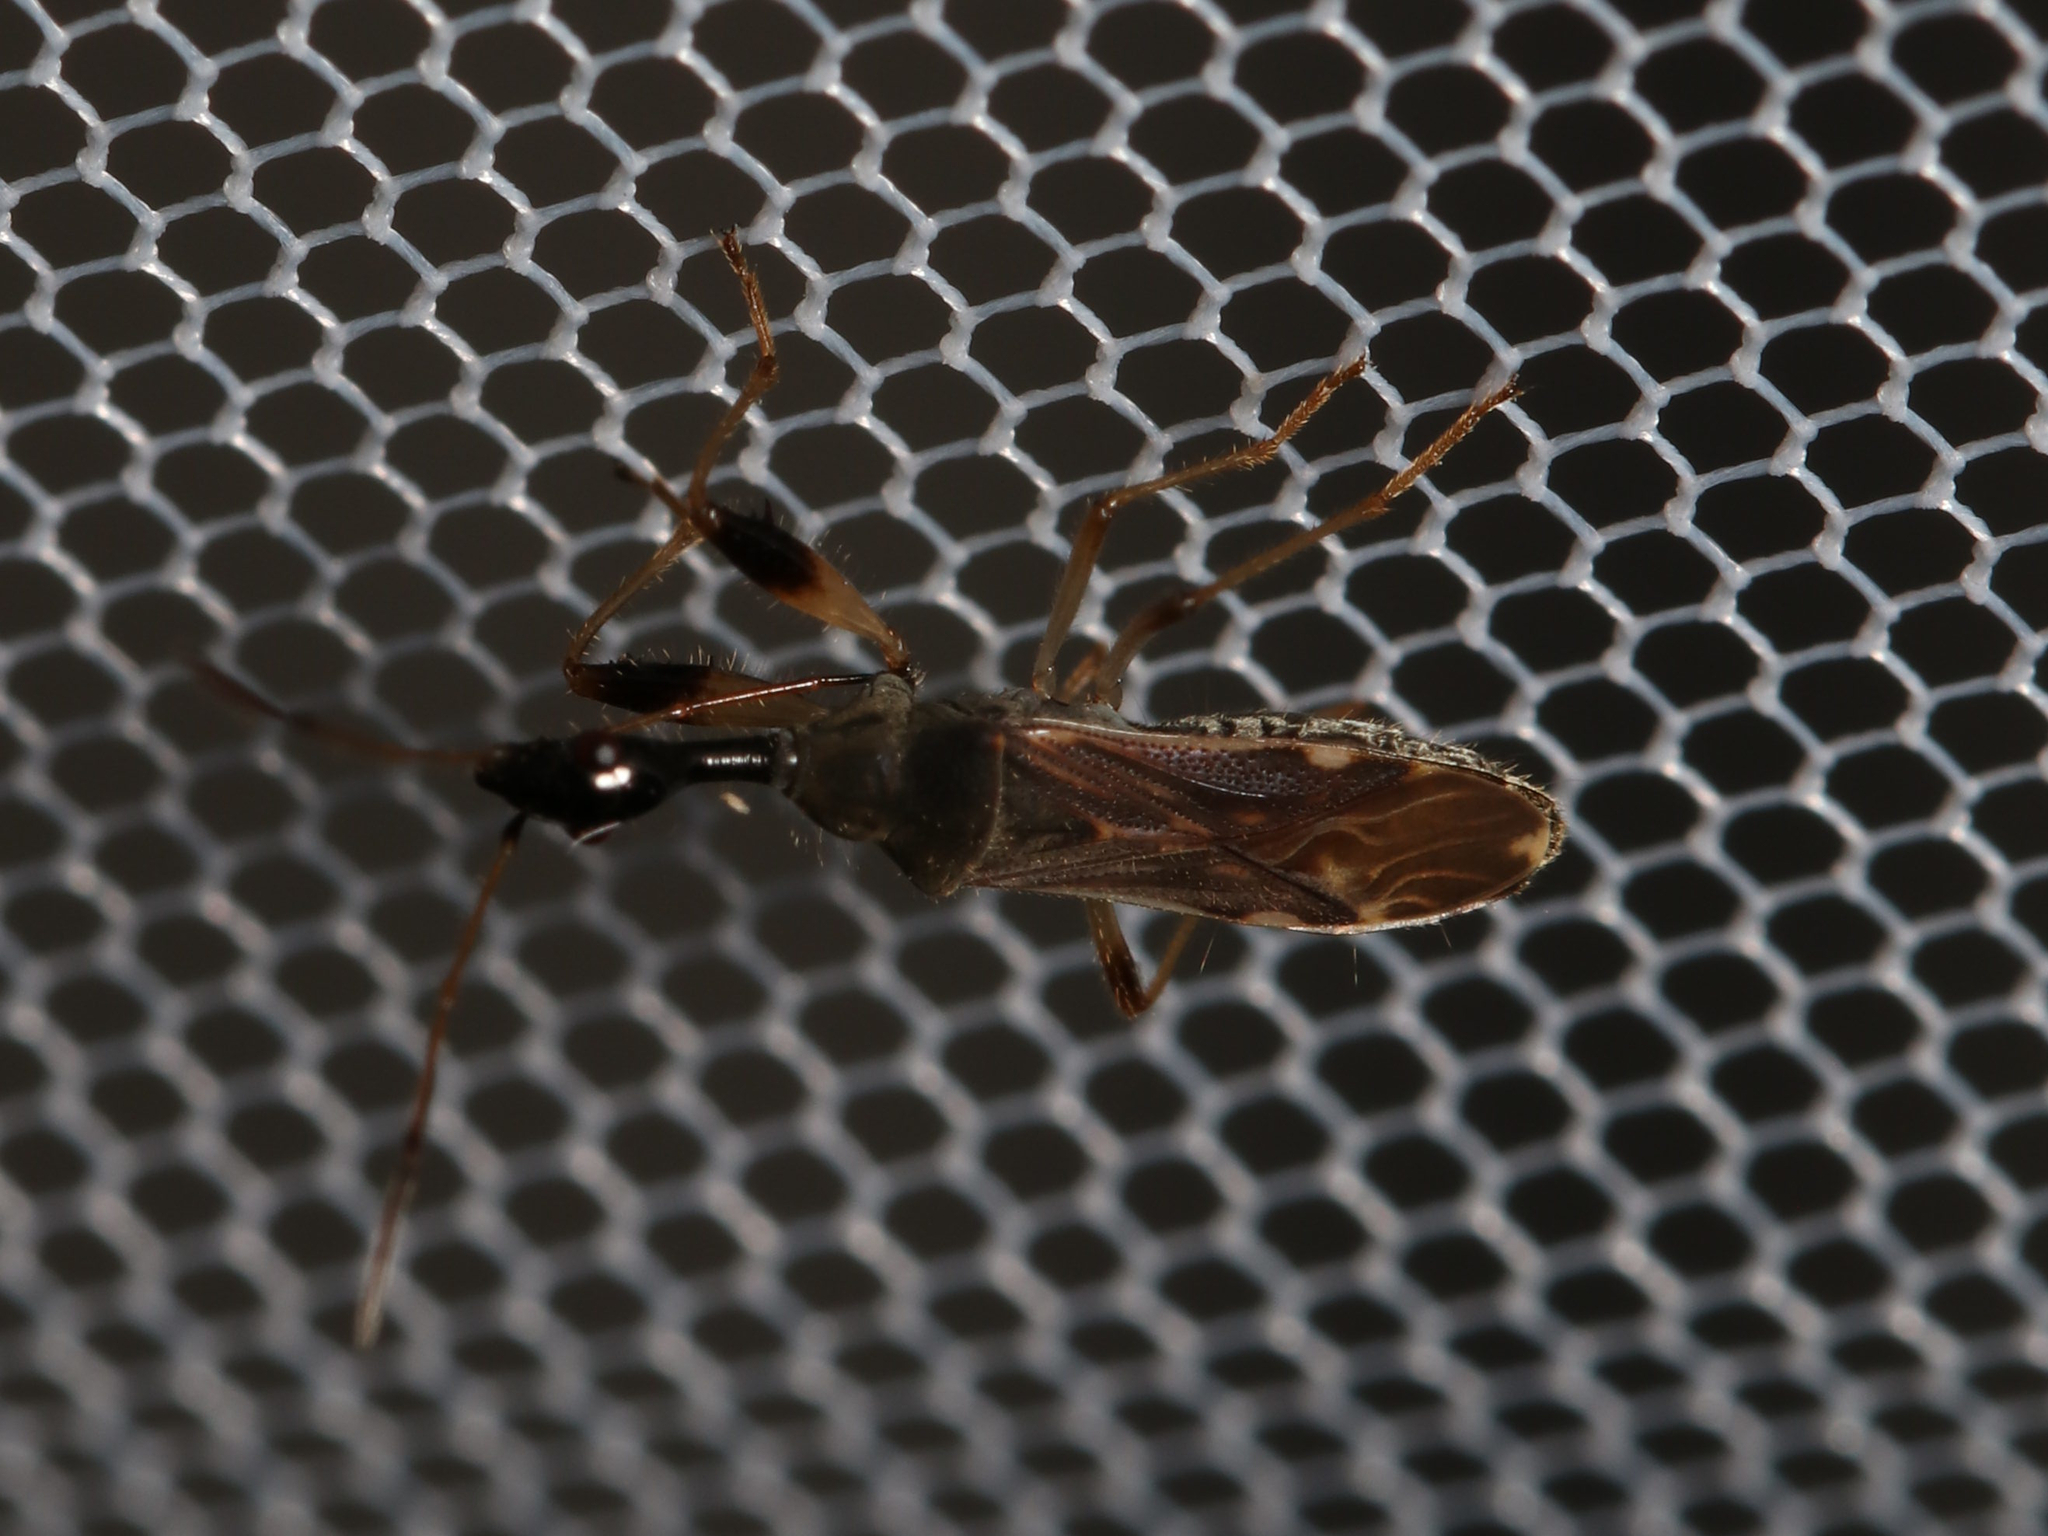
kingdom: Animalia
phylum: Arthropoda
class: Insecta
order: Hemiptera
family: Rhyparochromidae
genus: Myodocha
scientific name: Myodocha serripes
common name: Long-necked seed bug
